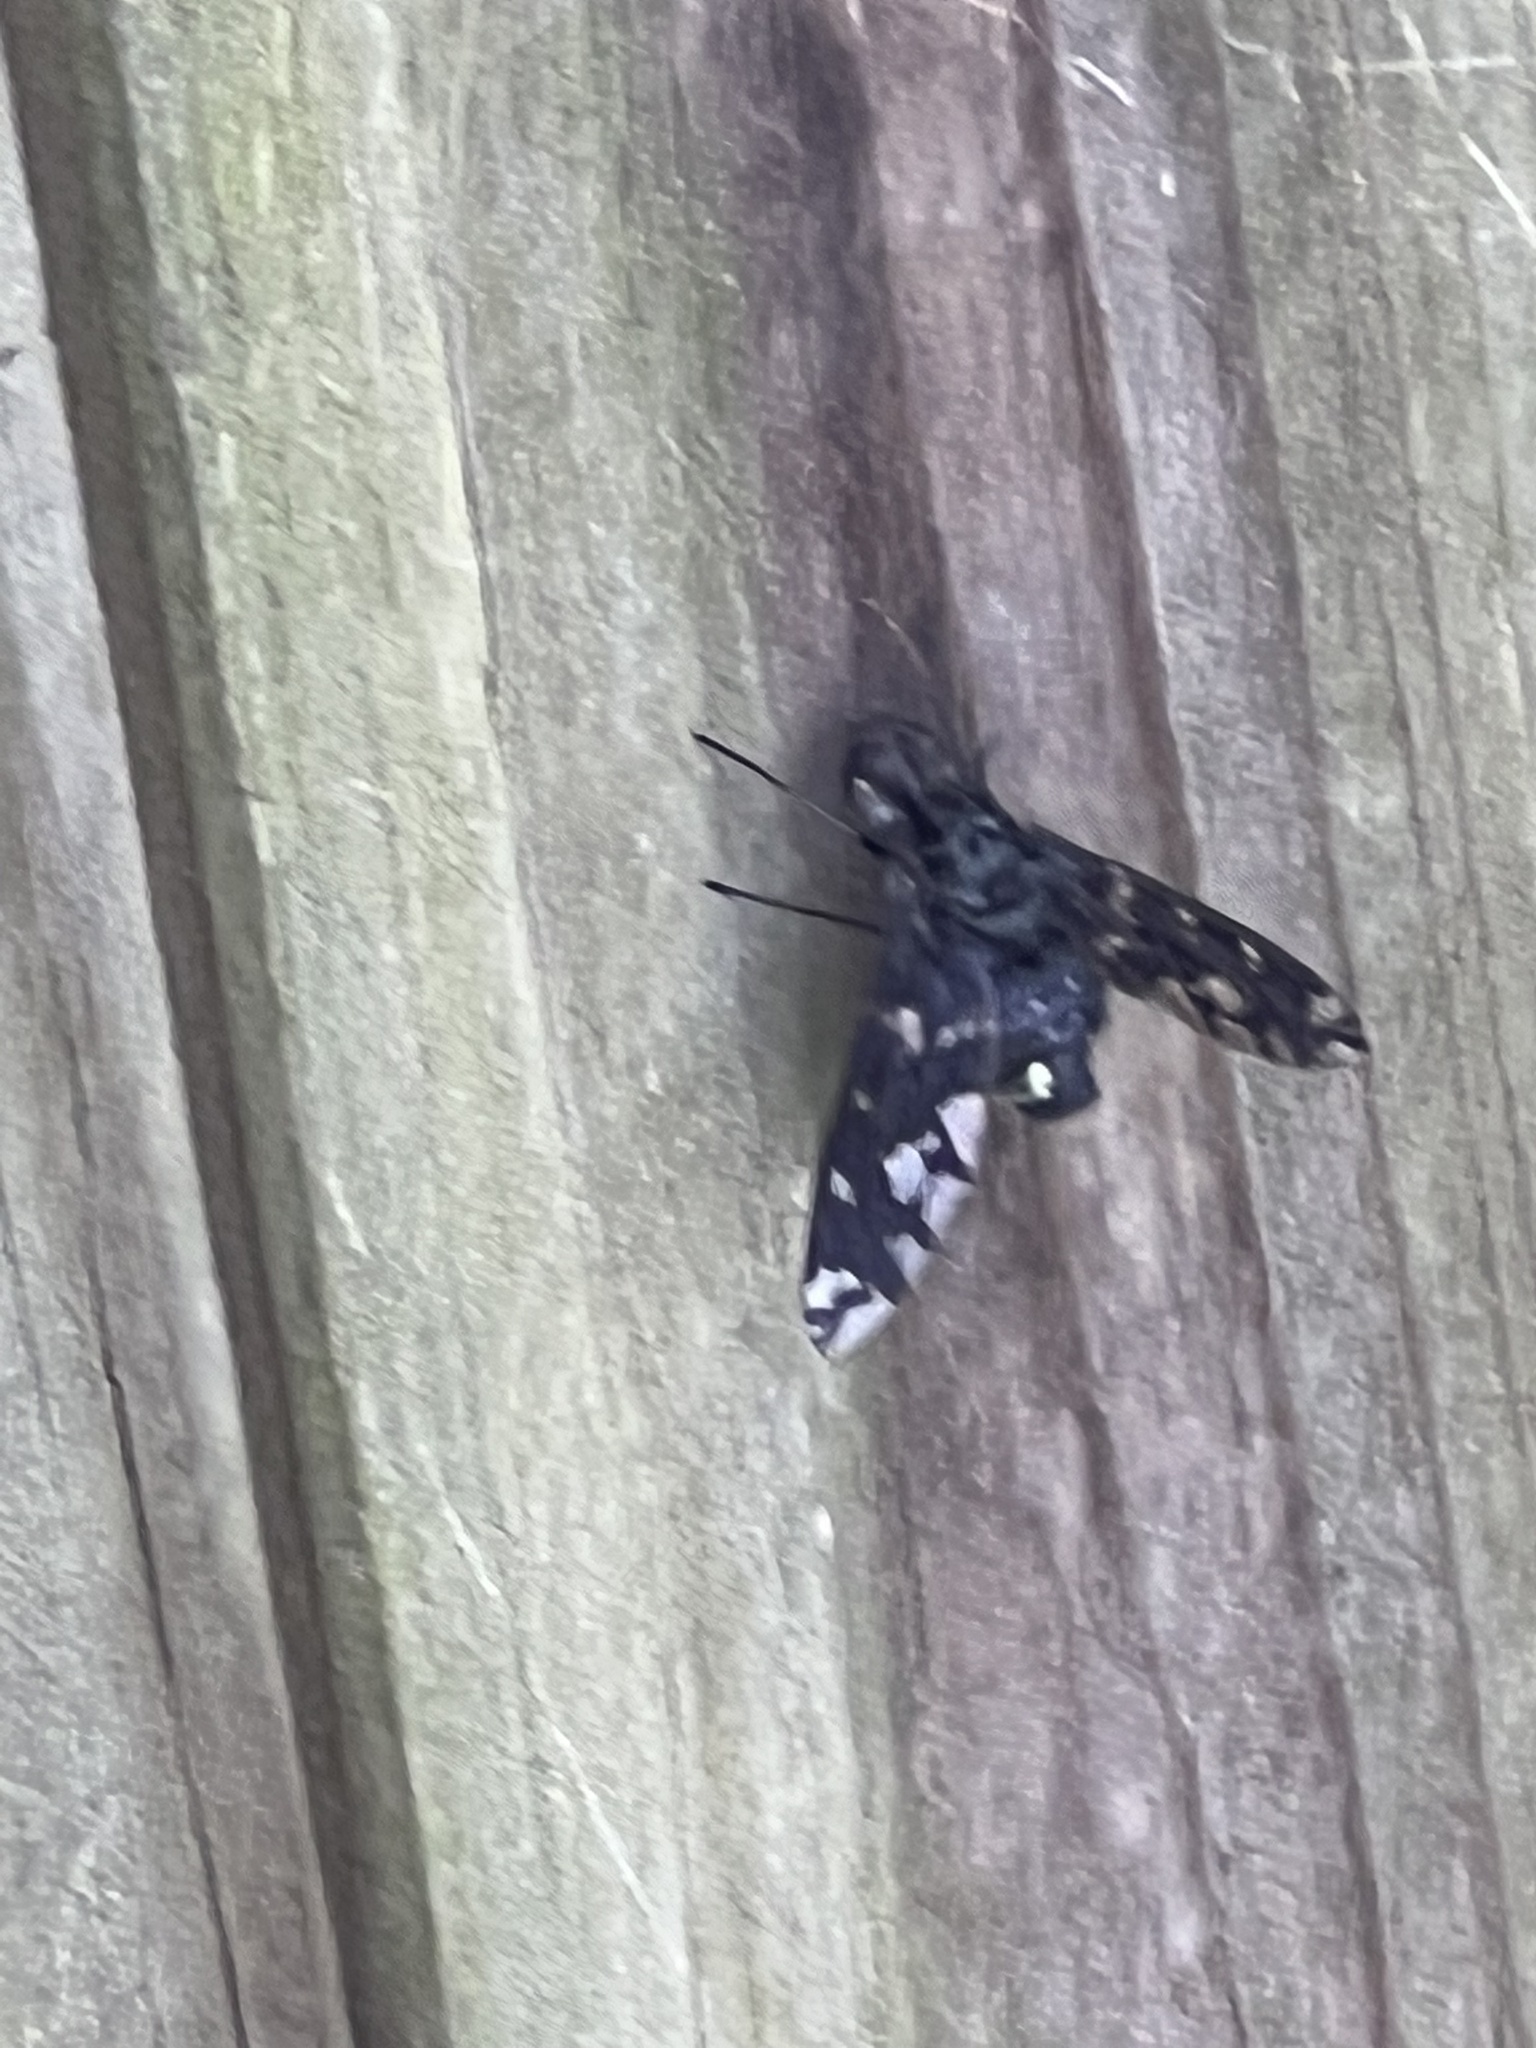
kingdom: Animalia
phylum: Arthropoda
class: Insecta
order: Diptera
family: Bombyliidae
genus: Xenox
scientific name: Xenox tigrinus
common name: Tiger bee fly
